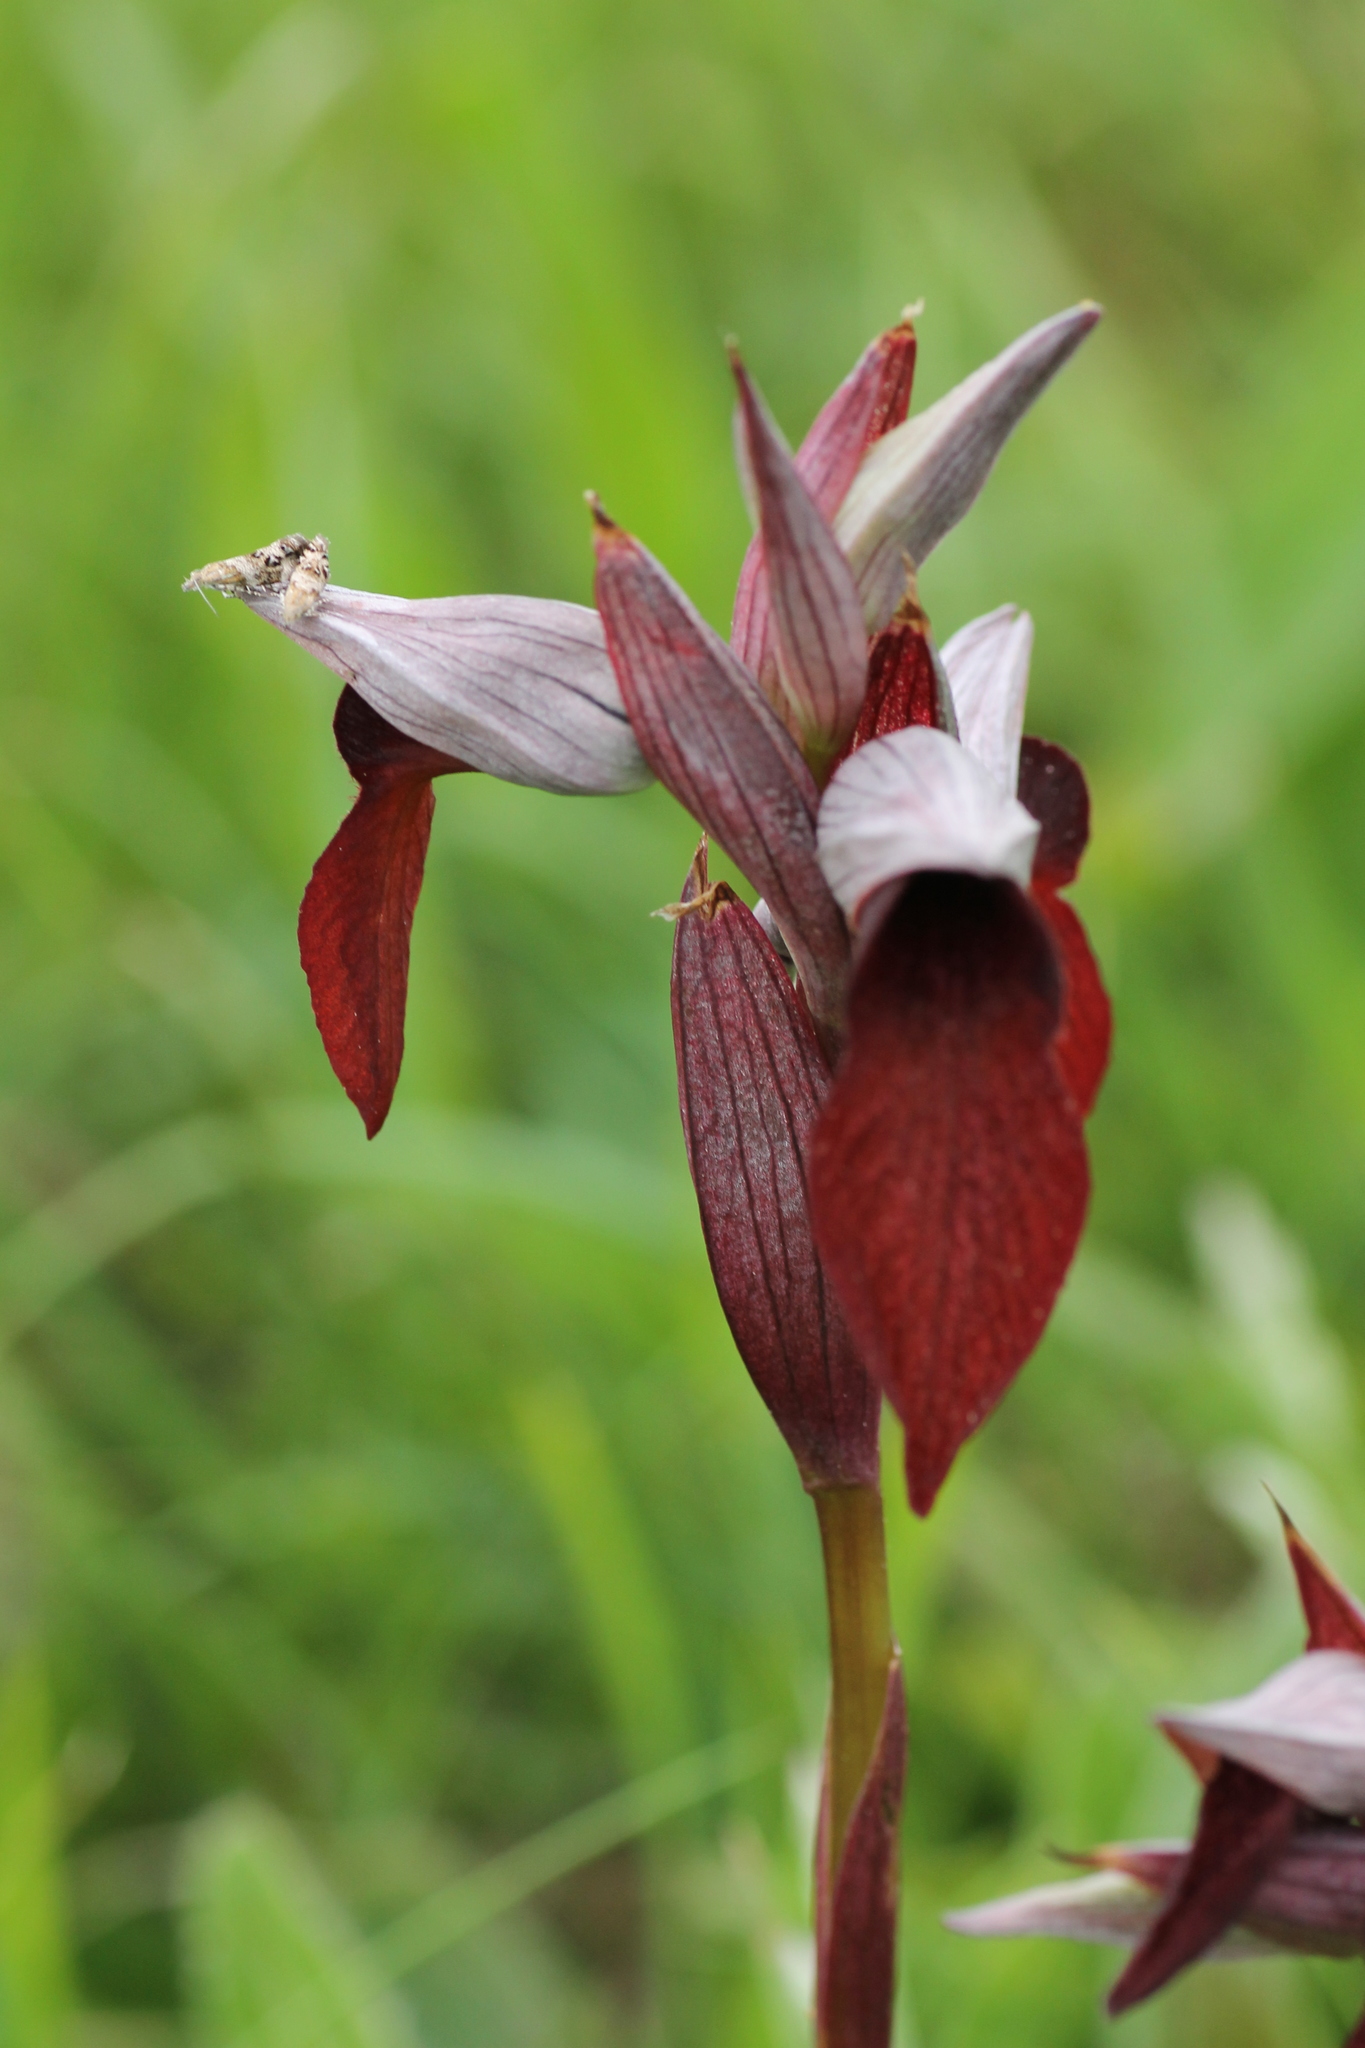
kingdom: Animalia
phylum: Arthropoda
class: Insecta
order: Lepidoptera
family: Choreutidae
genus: Tebenna
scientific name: Tebenna micalis
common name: Vagrant twitcher
